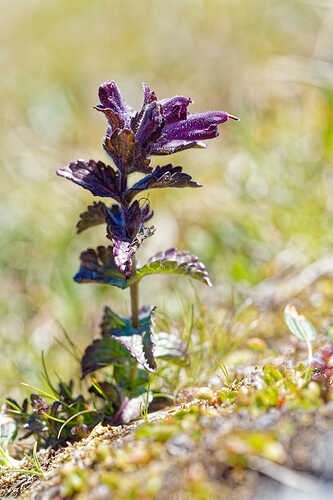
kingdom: Plantae
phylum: Tracheophyta
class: Magnoliopsida
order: Lamiales
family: Orobanchaceae
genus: Bartsia
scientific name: Bartsia alpina
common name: Alpine bartsia
